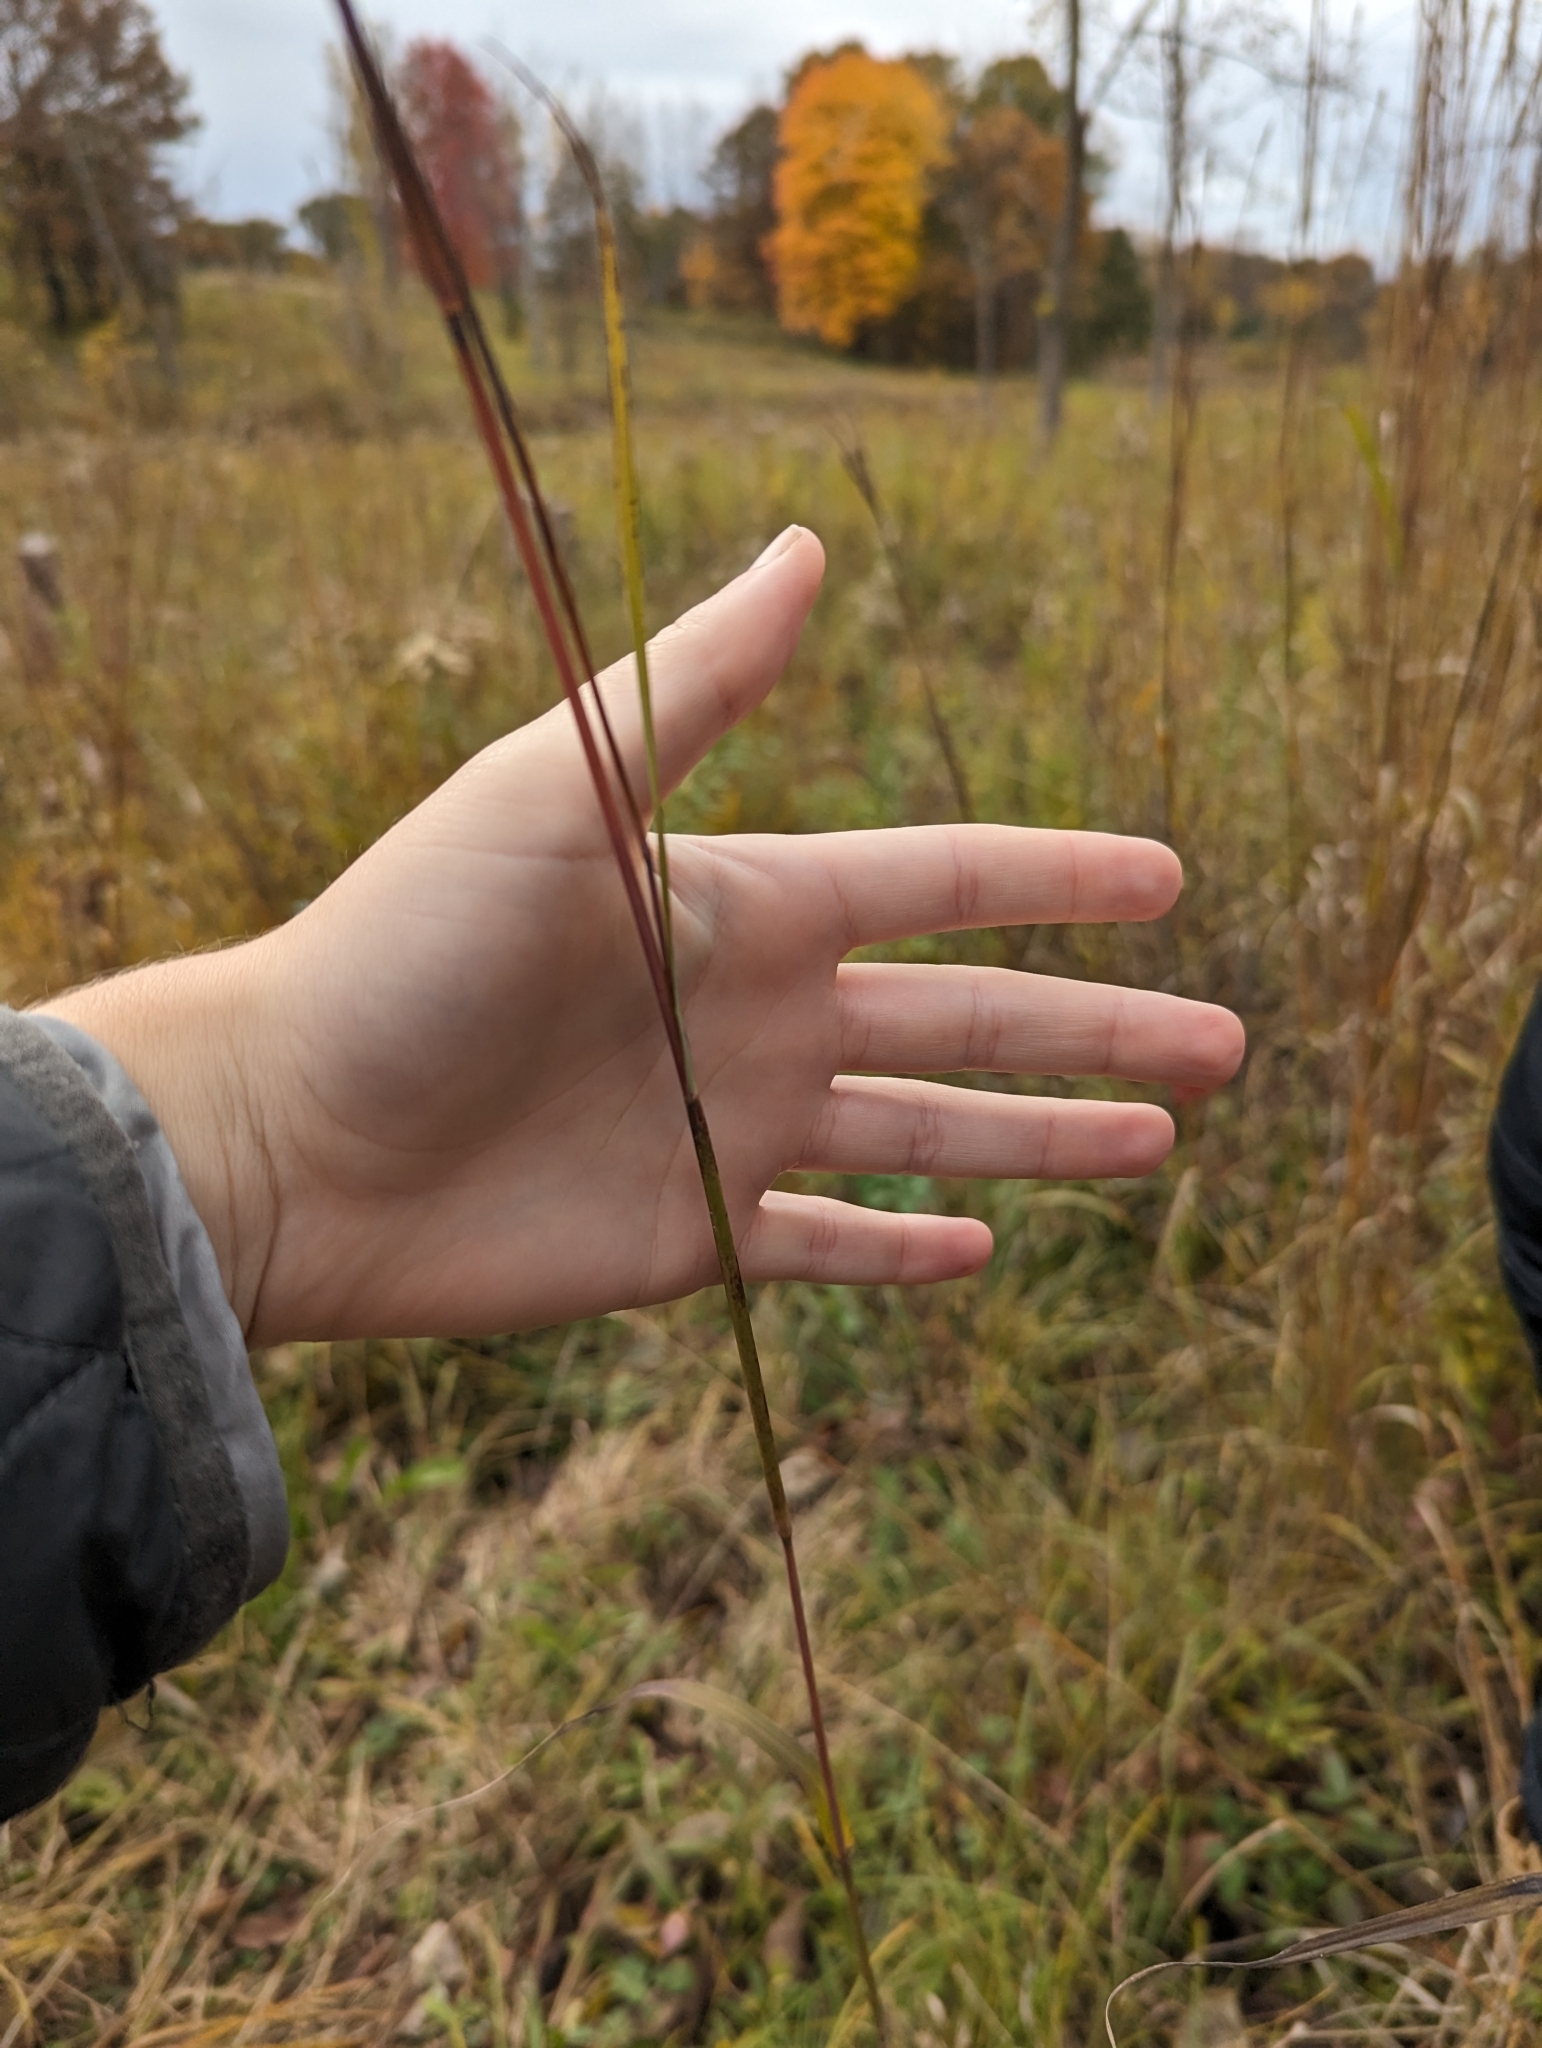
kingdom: Plantae
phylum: Tracheophyta
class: Liliopsida
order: Poales
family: Poaceae
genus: Andropogon
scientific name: Andropogon gerardi
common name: Big bluestem
